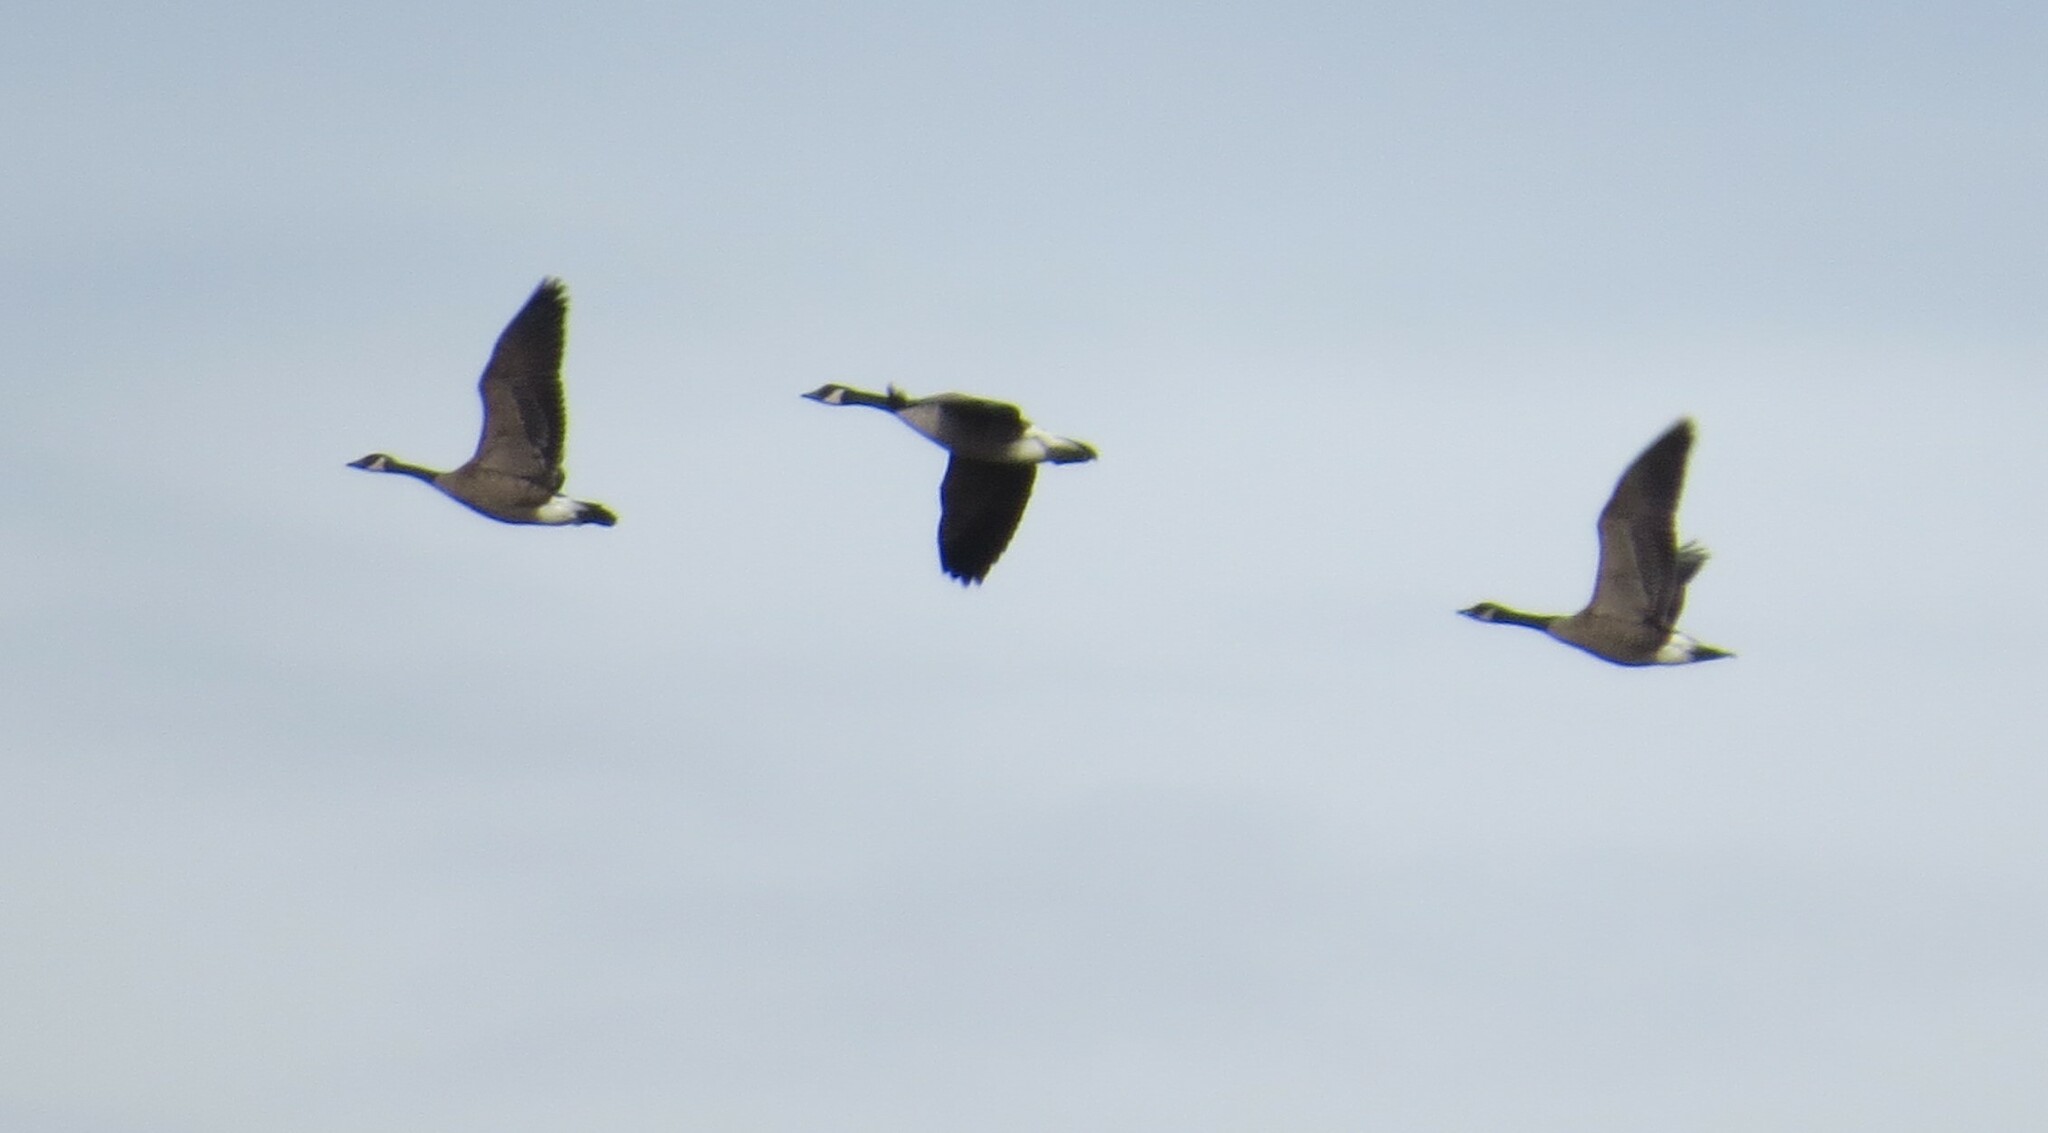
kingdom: Animalia
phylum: Chordata
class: Aves
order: Anseriformes
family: Anatidae
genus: Branta
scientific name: Branta canadensis
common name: Canada goose
